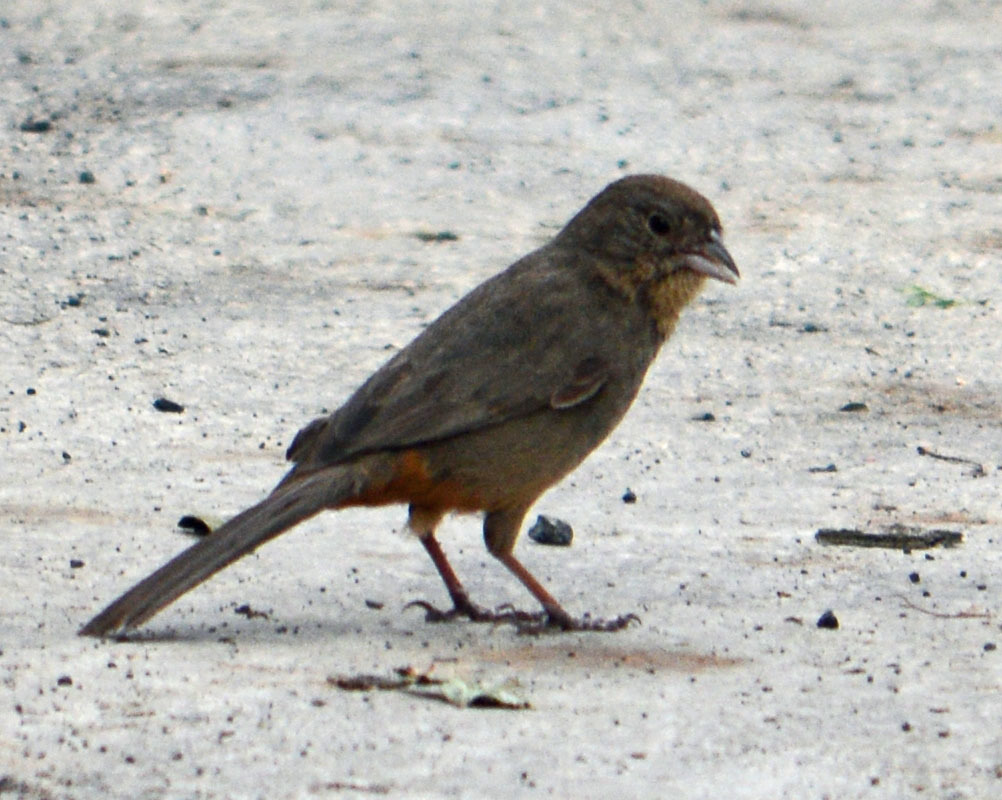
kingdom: Animalia
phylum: Chordata
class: Aves
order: Passeriformes
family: Passerellidae
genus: Melozone
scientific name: Melozone fusca
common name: Canyon towhee
